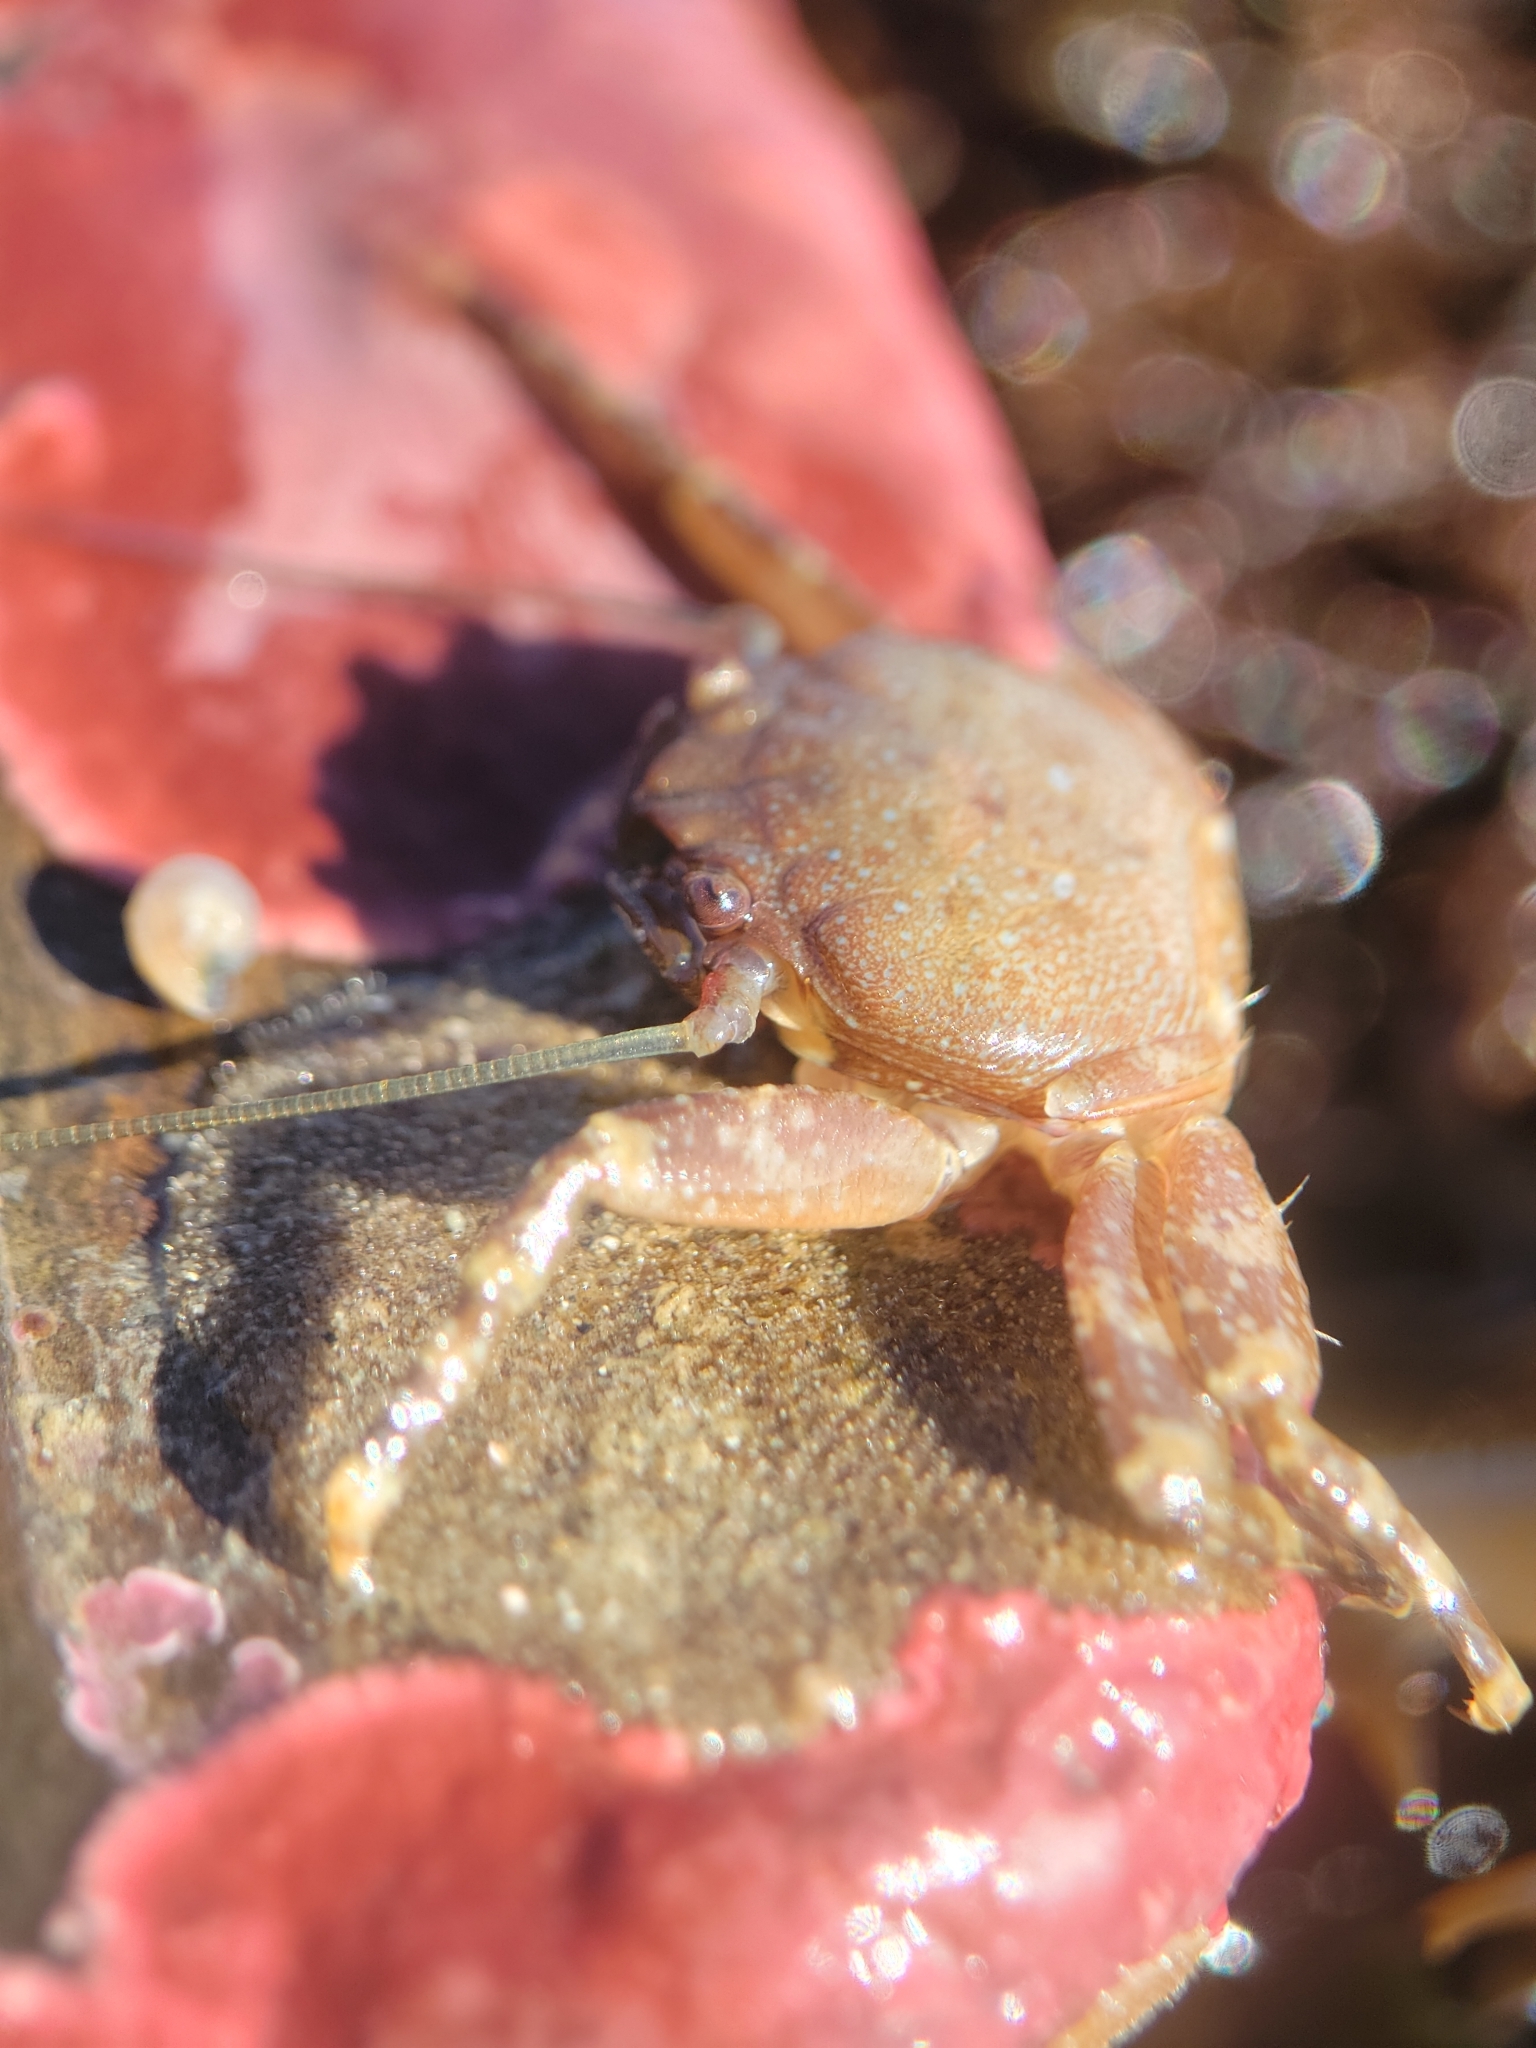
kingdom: Animalia
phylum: Arthropoda
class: Malacostraca
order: Decapoda
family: Porcellanidae
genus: Petrolisthes
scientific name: Petrolisthes manimaculis
